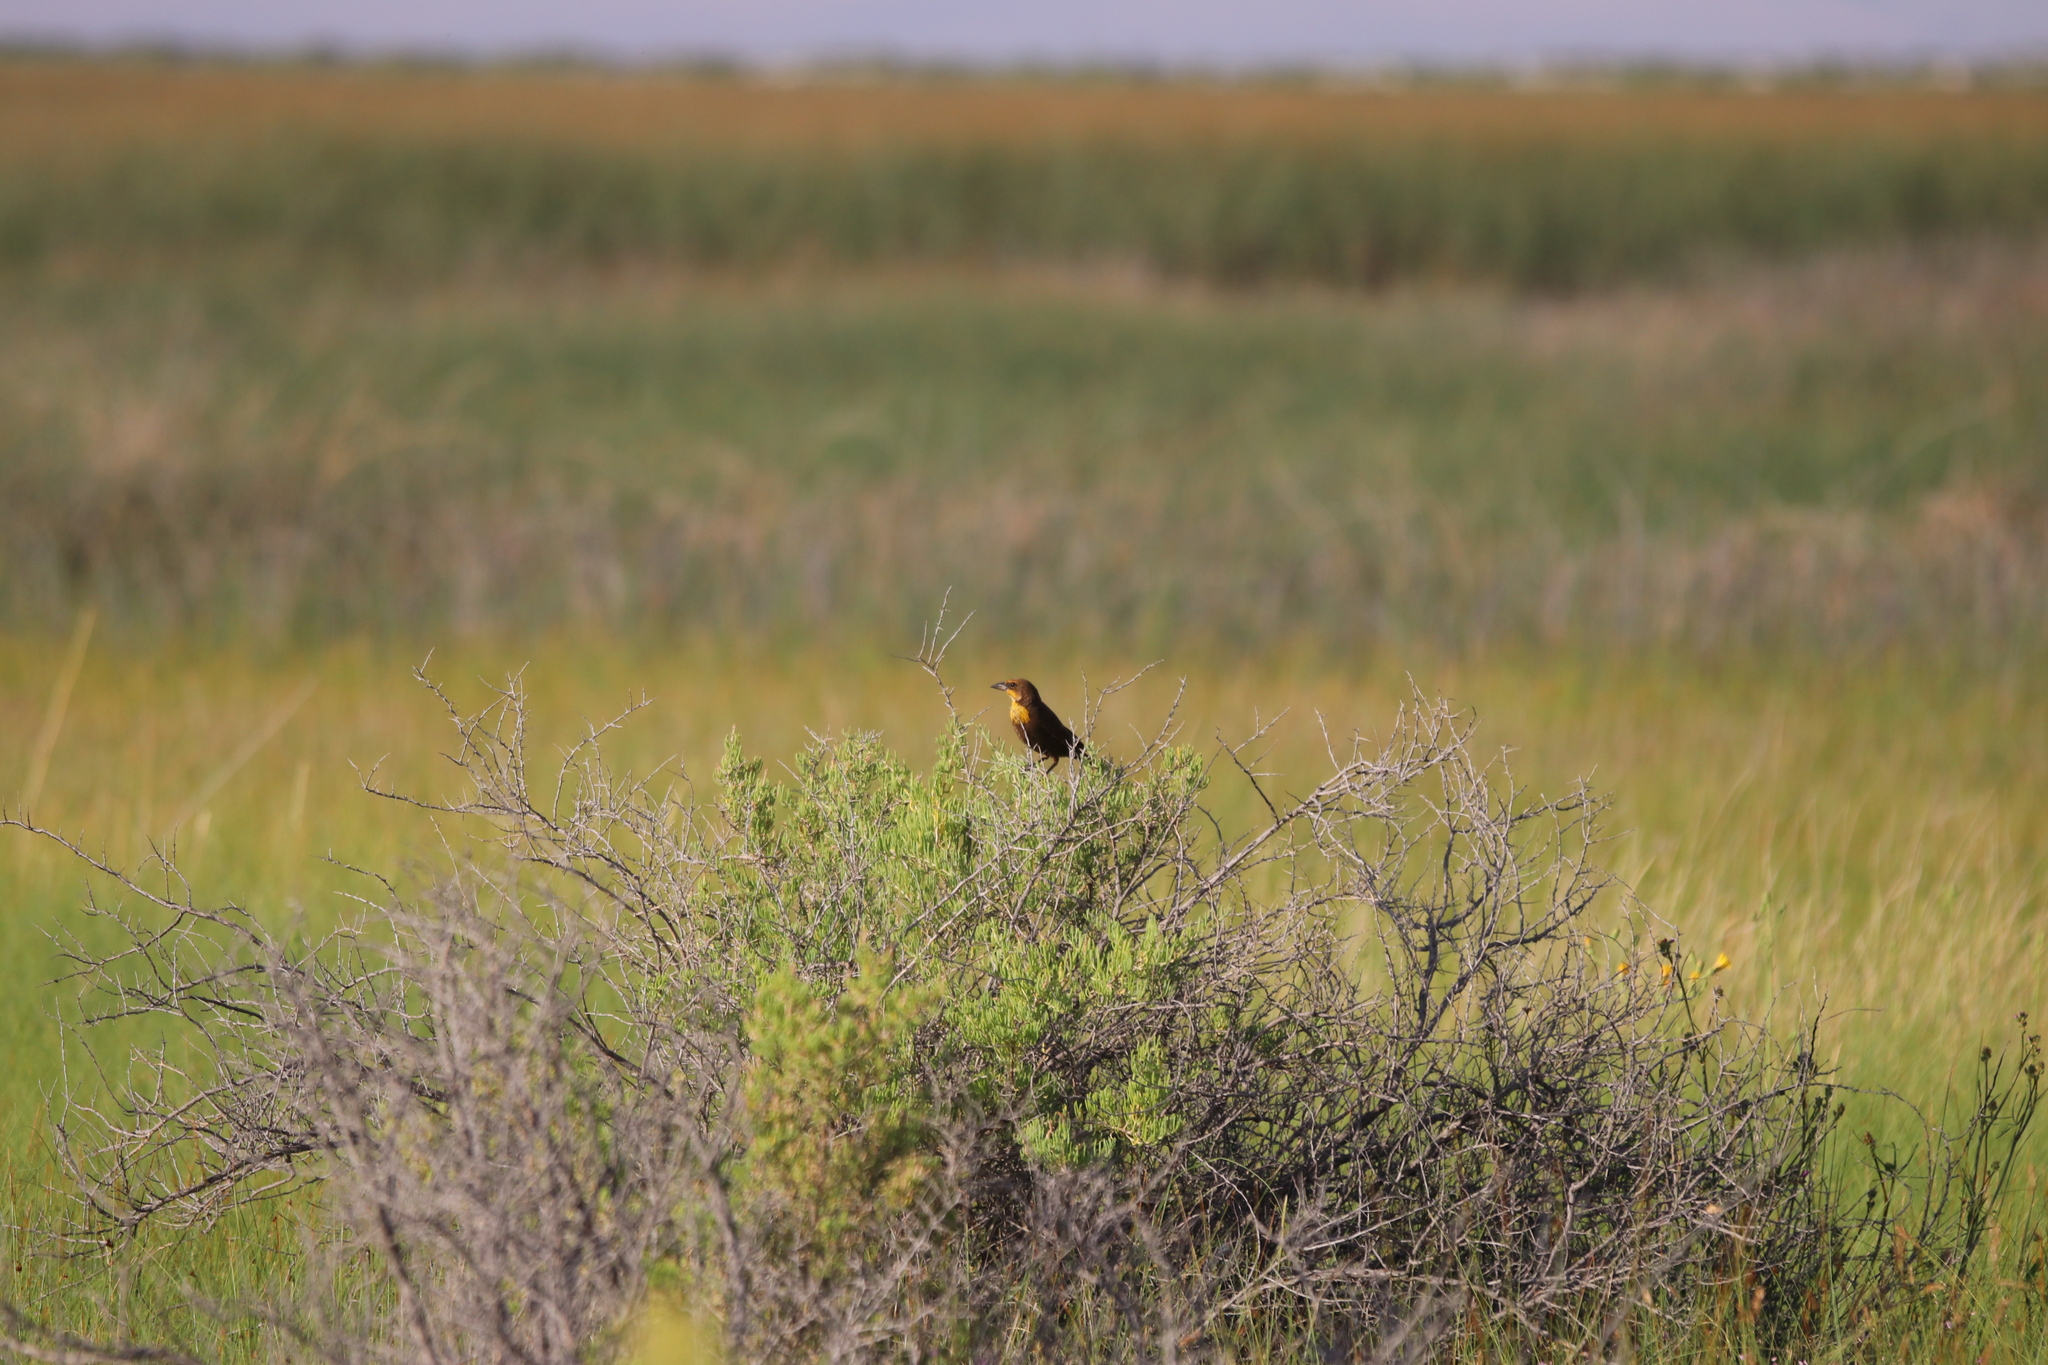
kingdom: Animalia
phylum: Chordata
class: Aves
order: Passeriformes
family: Icteridae
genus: Xanthocephalus
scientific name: Xanthocephalus xanthocephalus
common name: Yellow-headed blackbird
